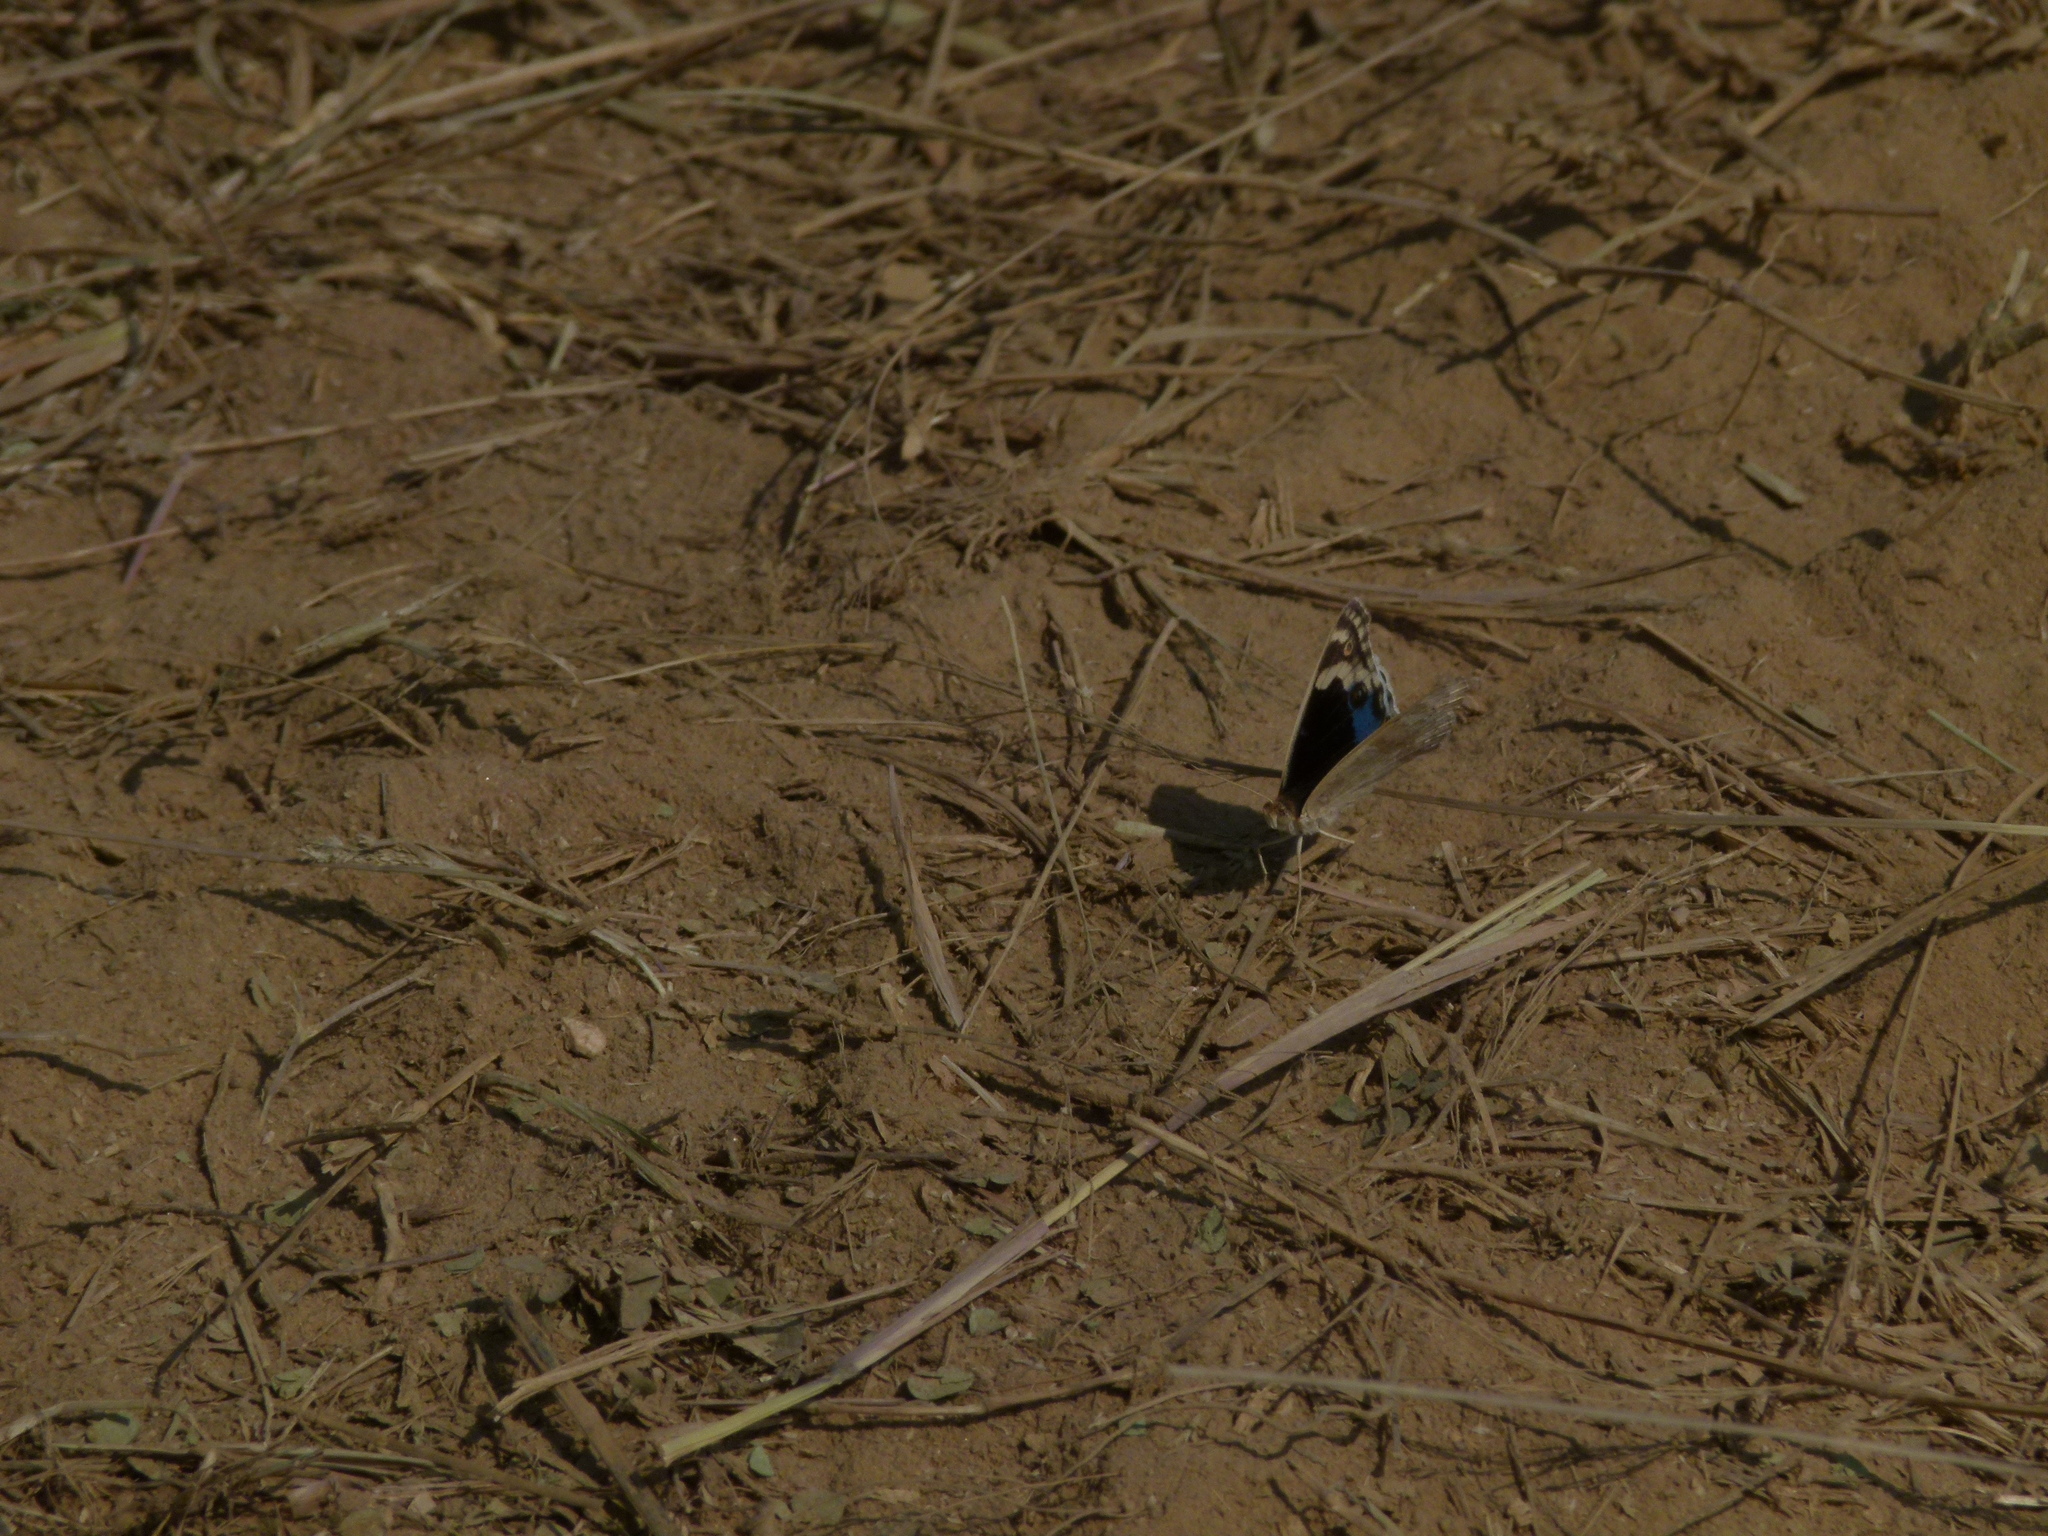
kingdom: Animalia
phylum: Arthropoda
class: Insecta
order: Lepidoptera
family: Nymphalidae
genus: Junonia
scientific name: Junonia orithya
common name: Blue pansy
